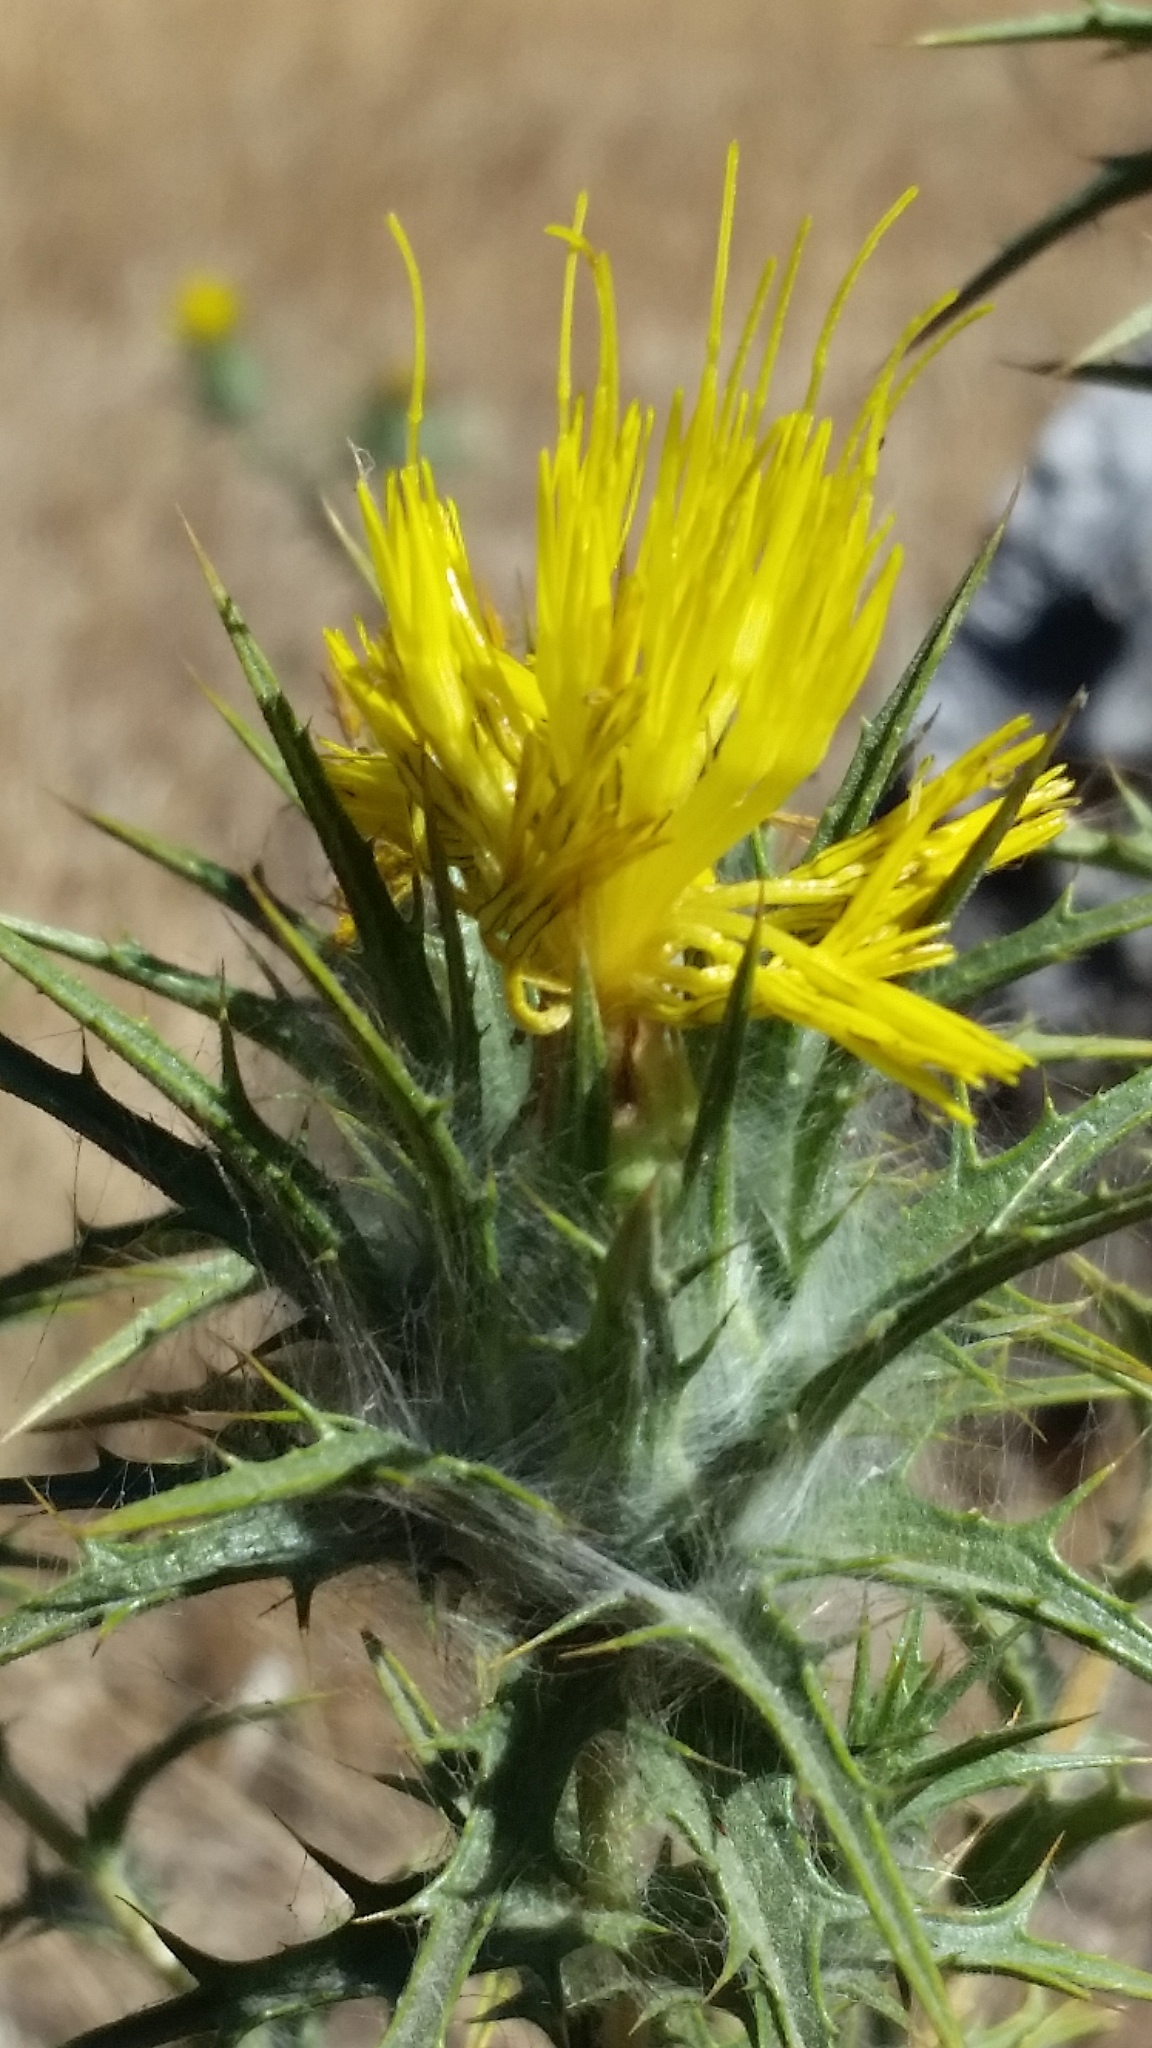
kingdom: Plantae
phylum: Tracheophyta
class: Magnoliopsida
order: Asterales
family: Asteraceae
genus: Carthamus
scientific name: Carthamus lanatus
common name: Downy safflower
